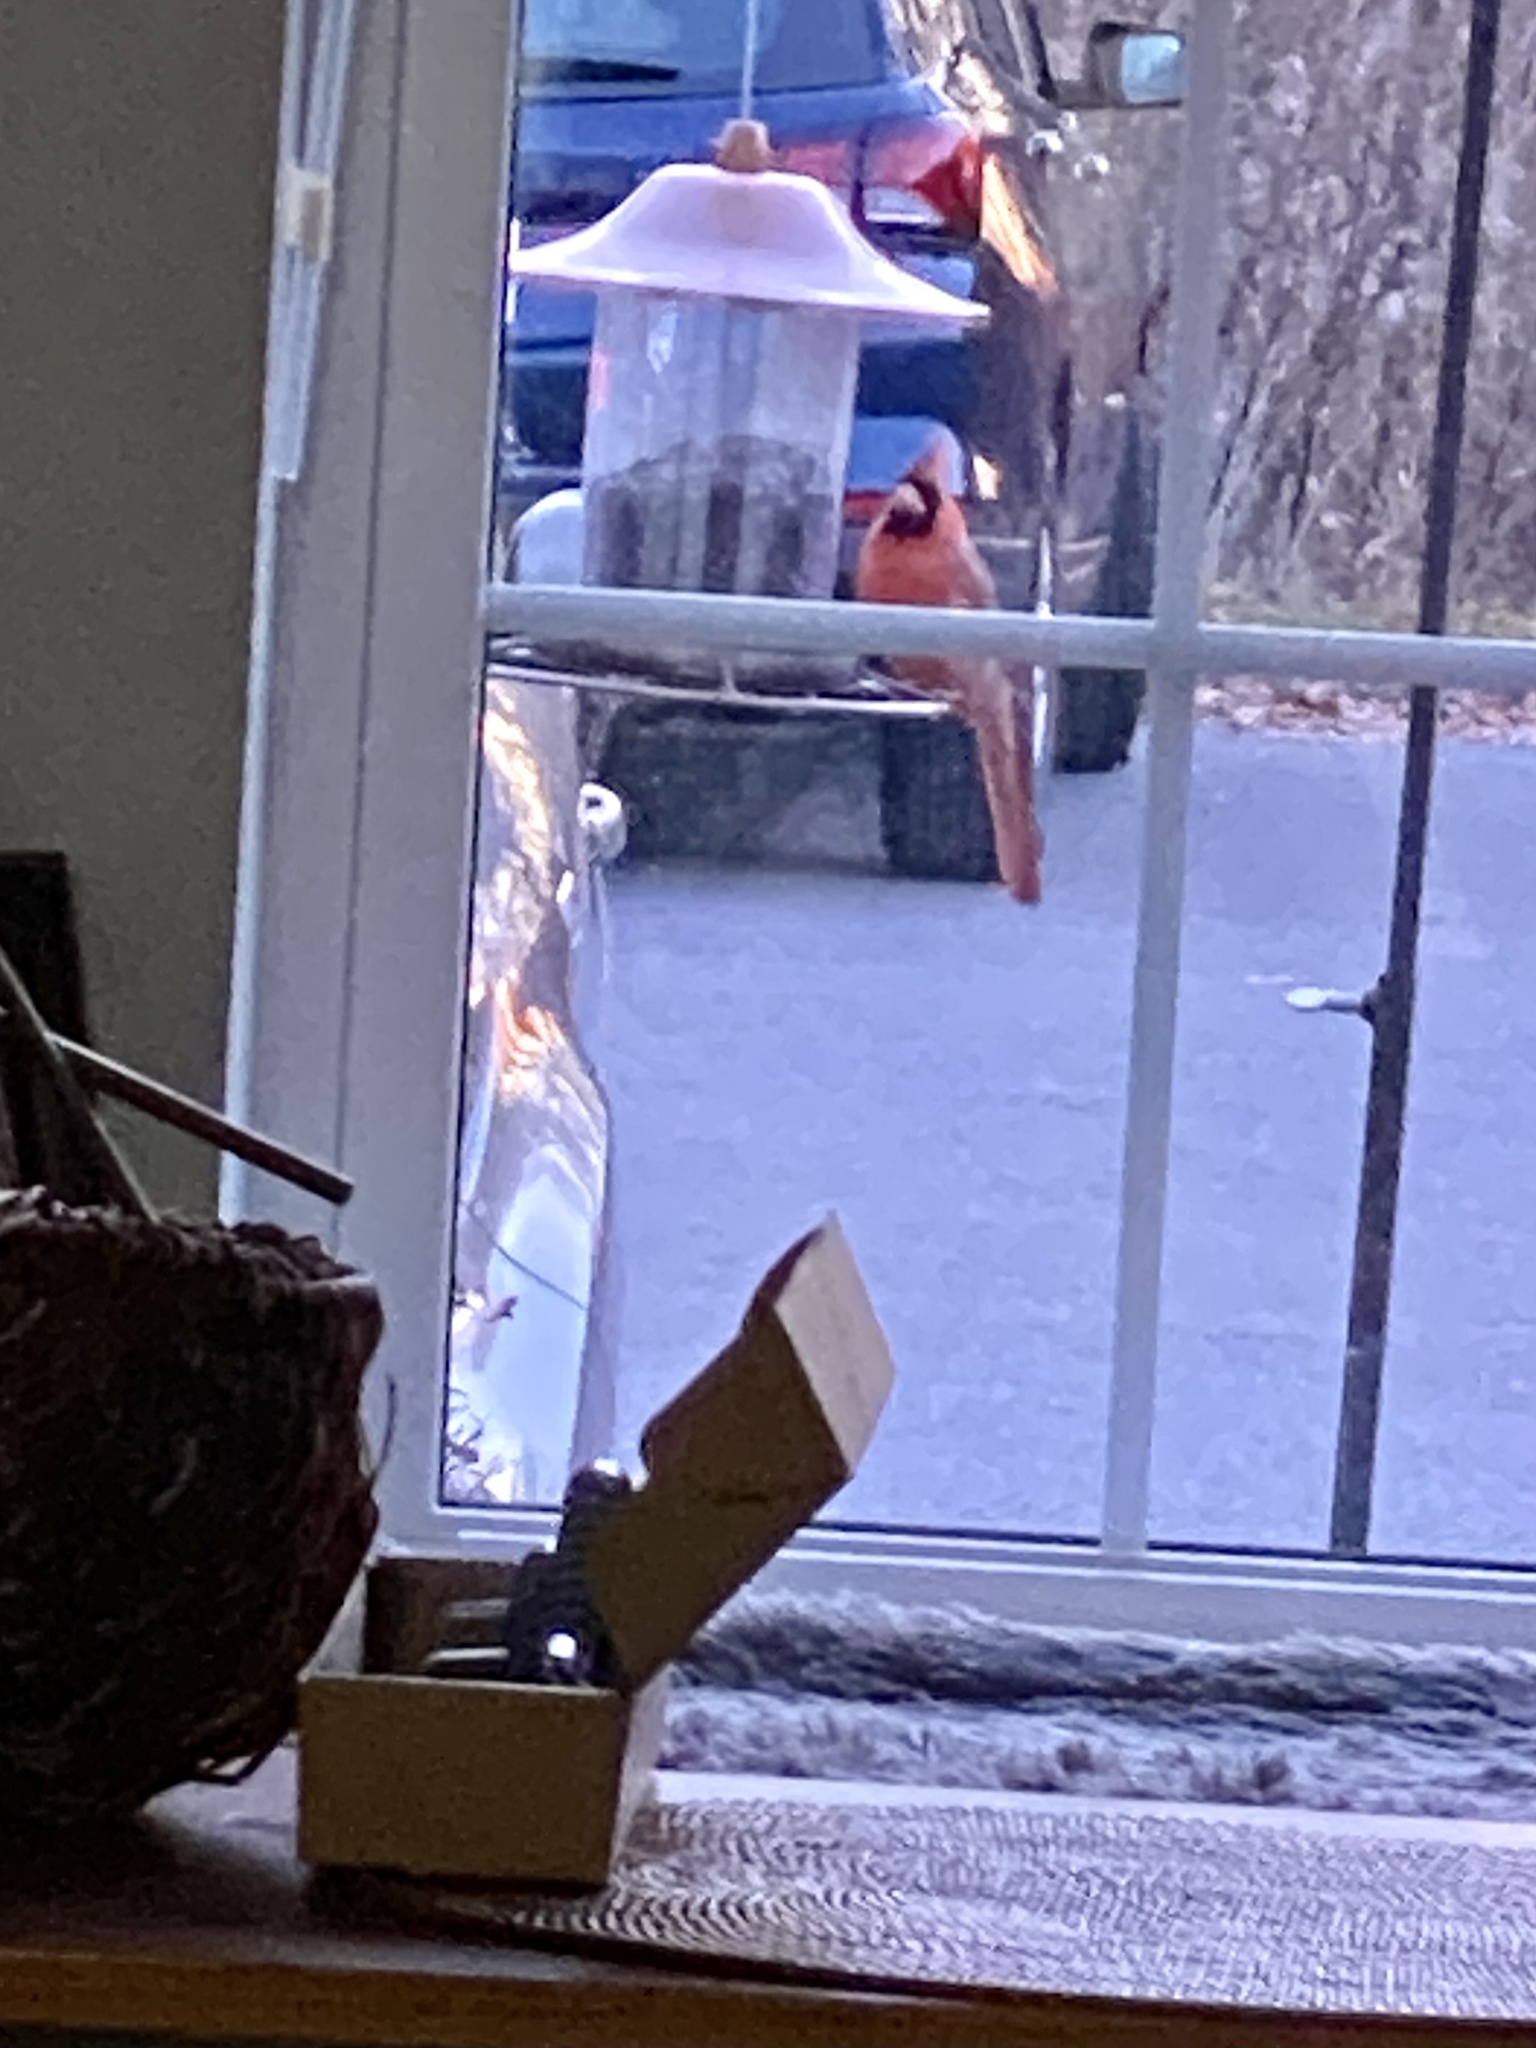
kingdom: Animalia
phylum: Chordata
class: Aves
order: Passeriformes
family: Cardinalidae
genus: Cardinalis
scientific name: Cardinalis cardinalis
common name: Northern cardinal
